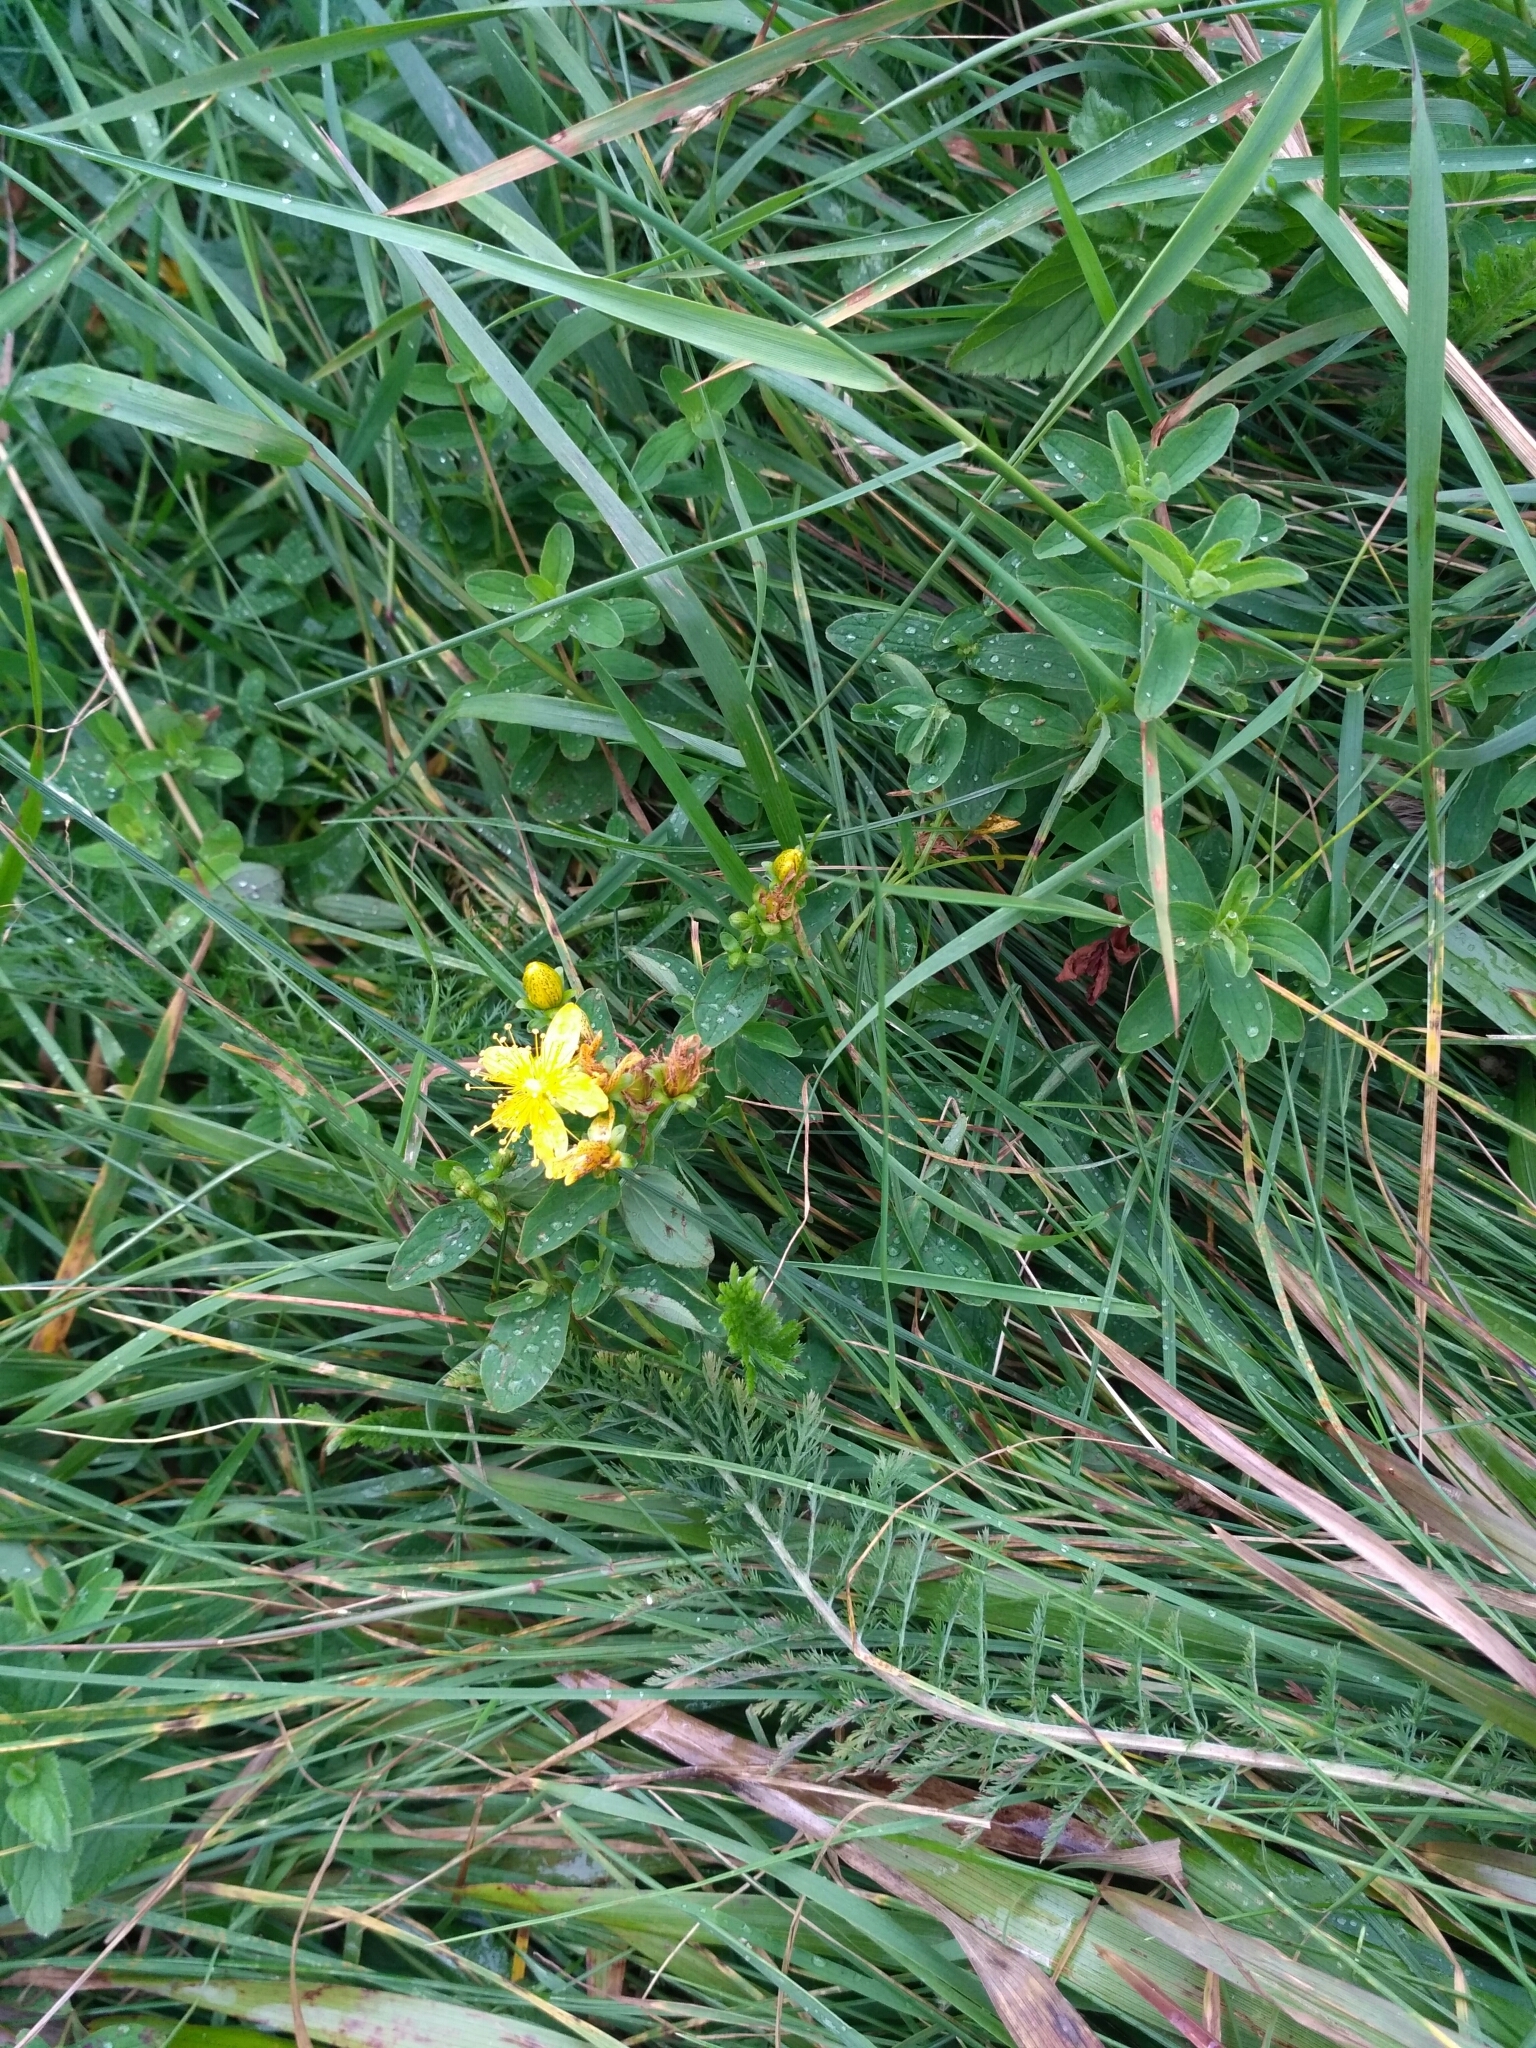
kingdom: Plantae
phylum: Tracheophyta
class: Magnoliopsida
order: Malpighiales
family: Hypericaceae
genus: Hypericum
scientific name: Hypericum maculatum
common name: Imperforate st. john's-wort
